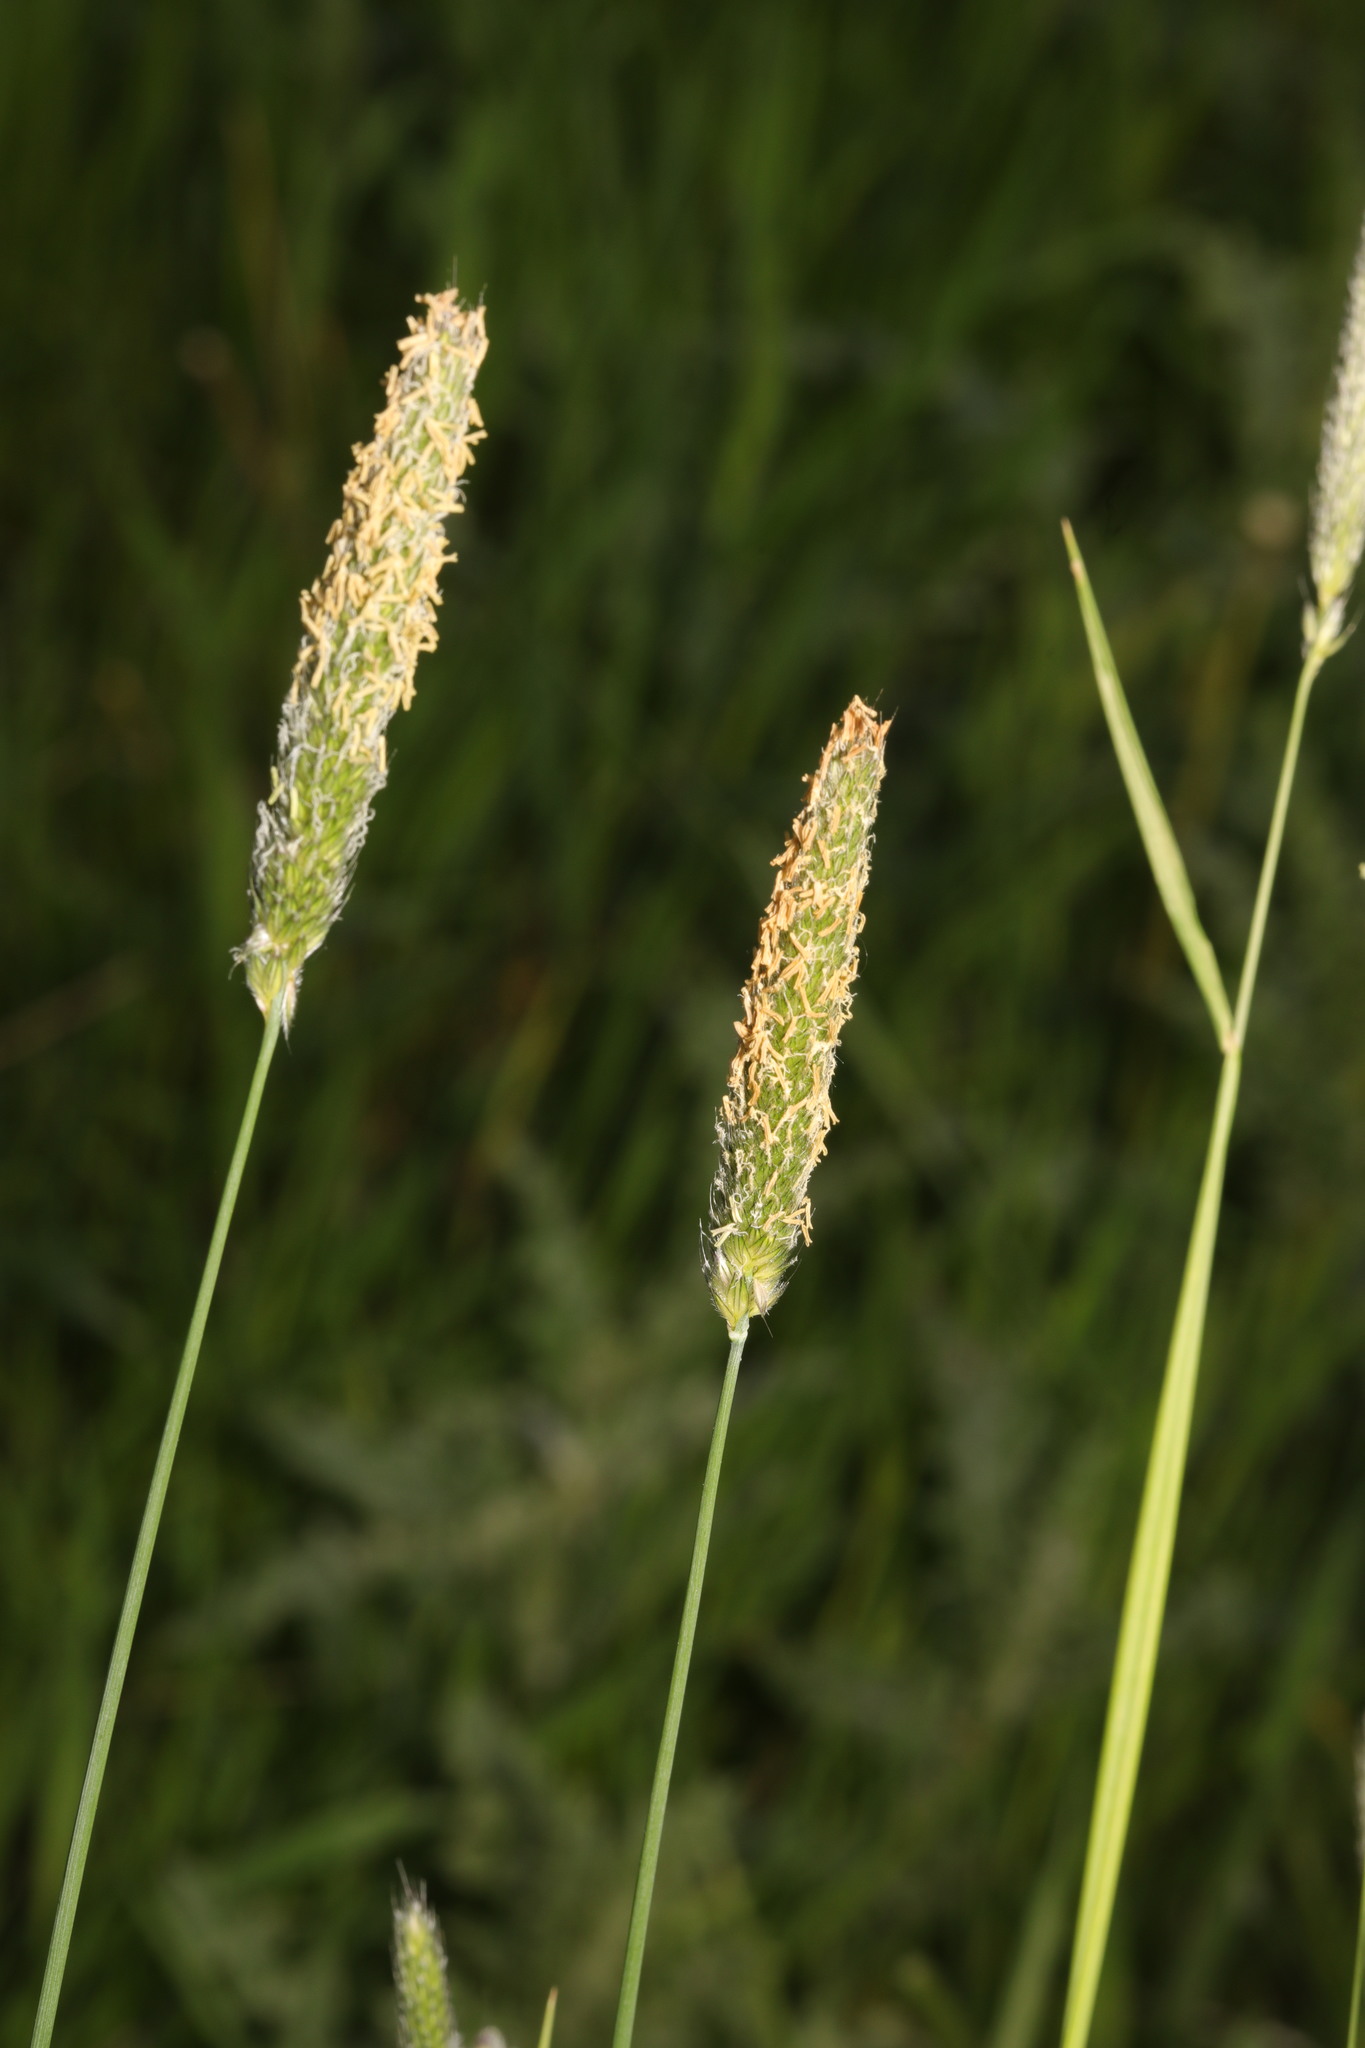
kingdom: Plantae
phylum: Tracheophyta
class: Liliopsida
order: Poales
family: Poaceae
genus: Alopecurus
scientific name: Alopecurus pratensis
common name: Meadow foxtail
